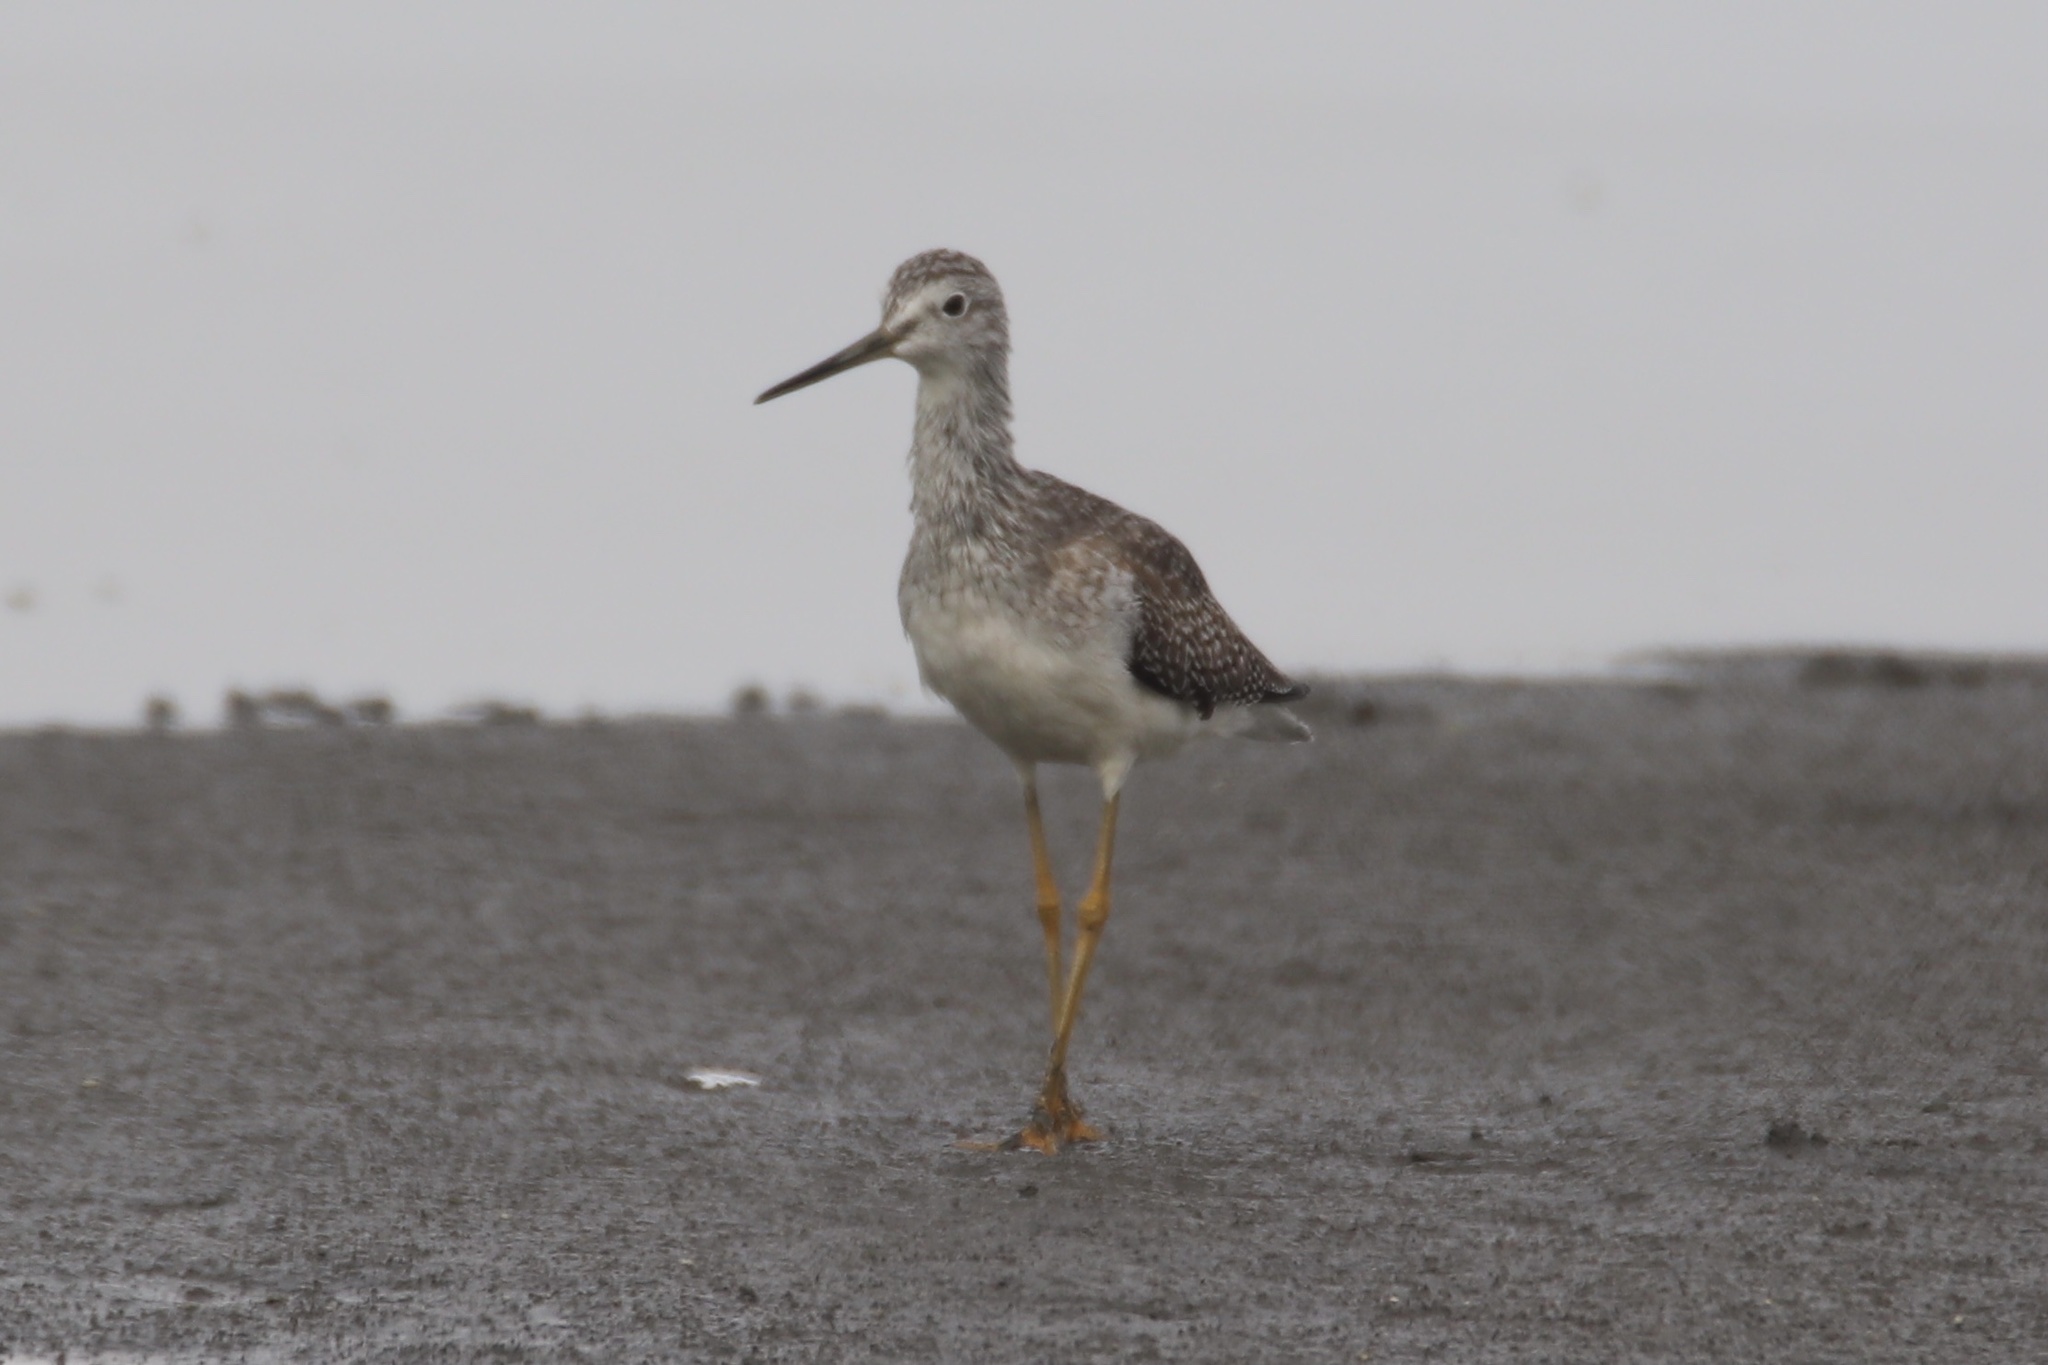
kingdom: Animalia
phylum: Chordata
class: Aves
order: Charadriiformes
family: Scolopacidae
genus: Tringa
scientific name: Tringa melanoleuca
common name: Greater yellowlegs
